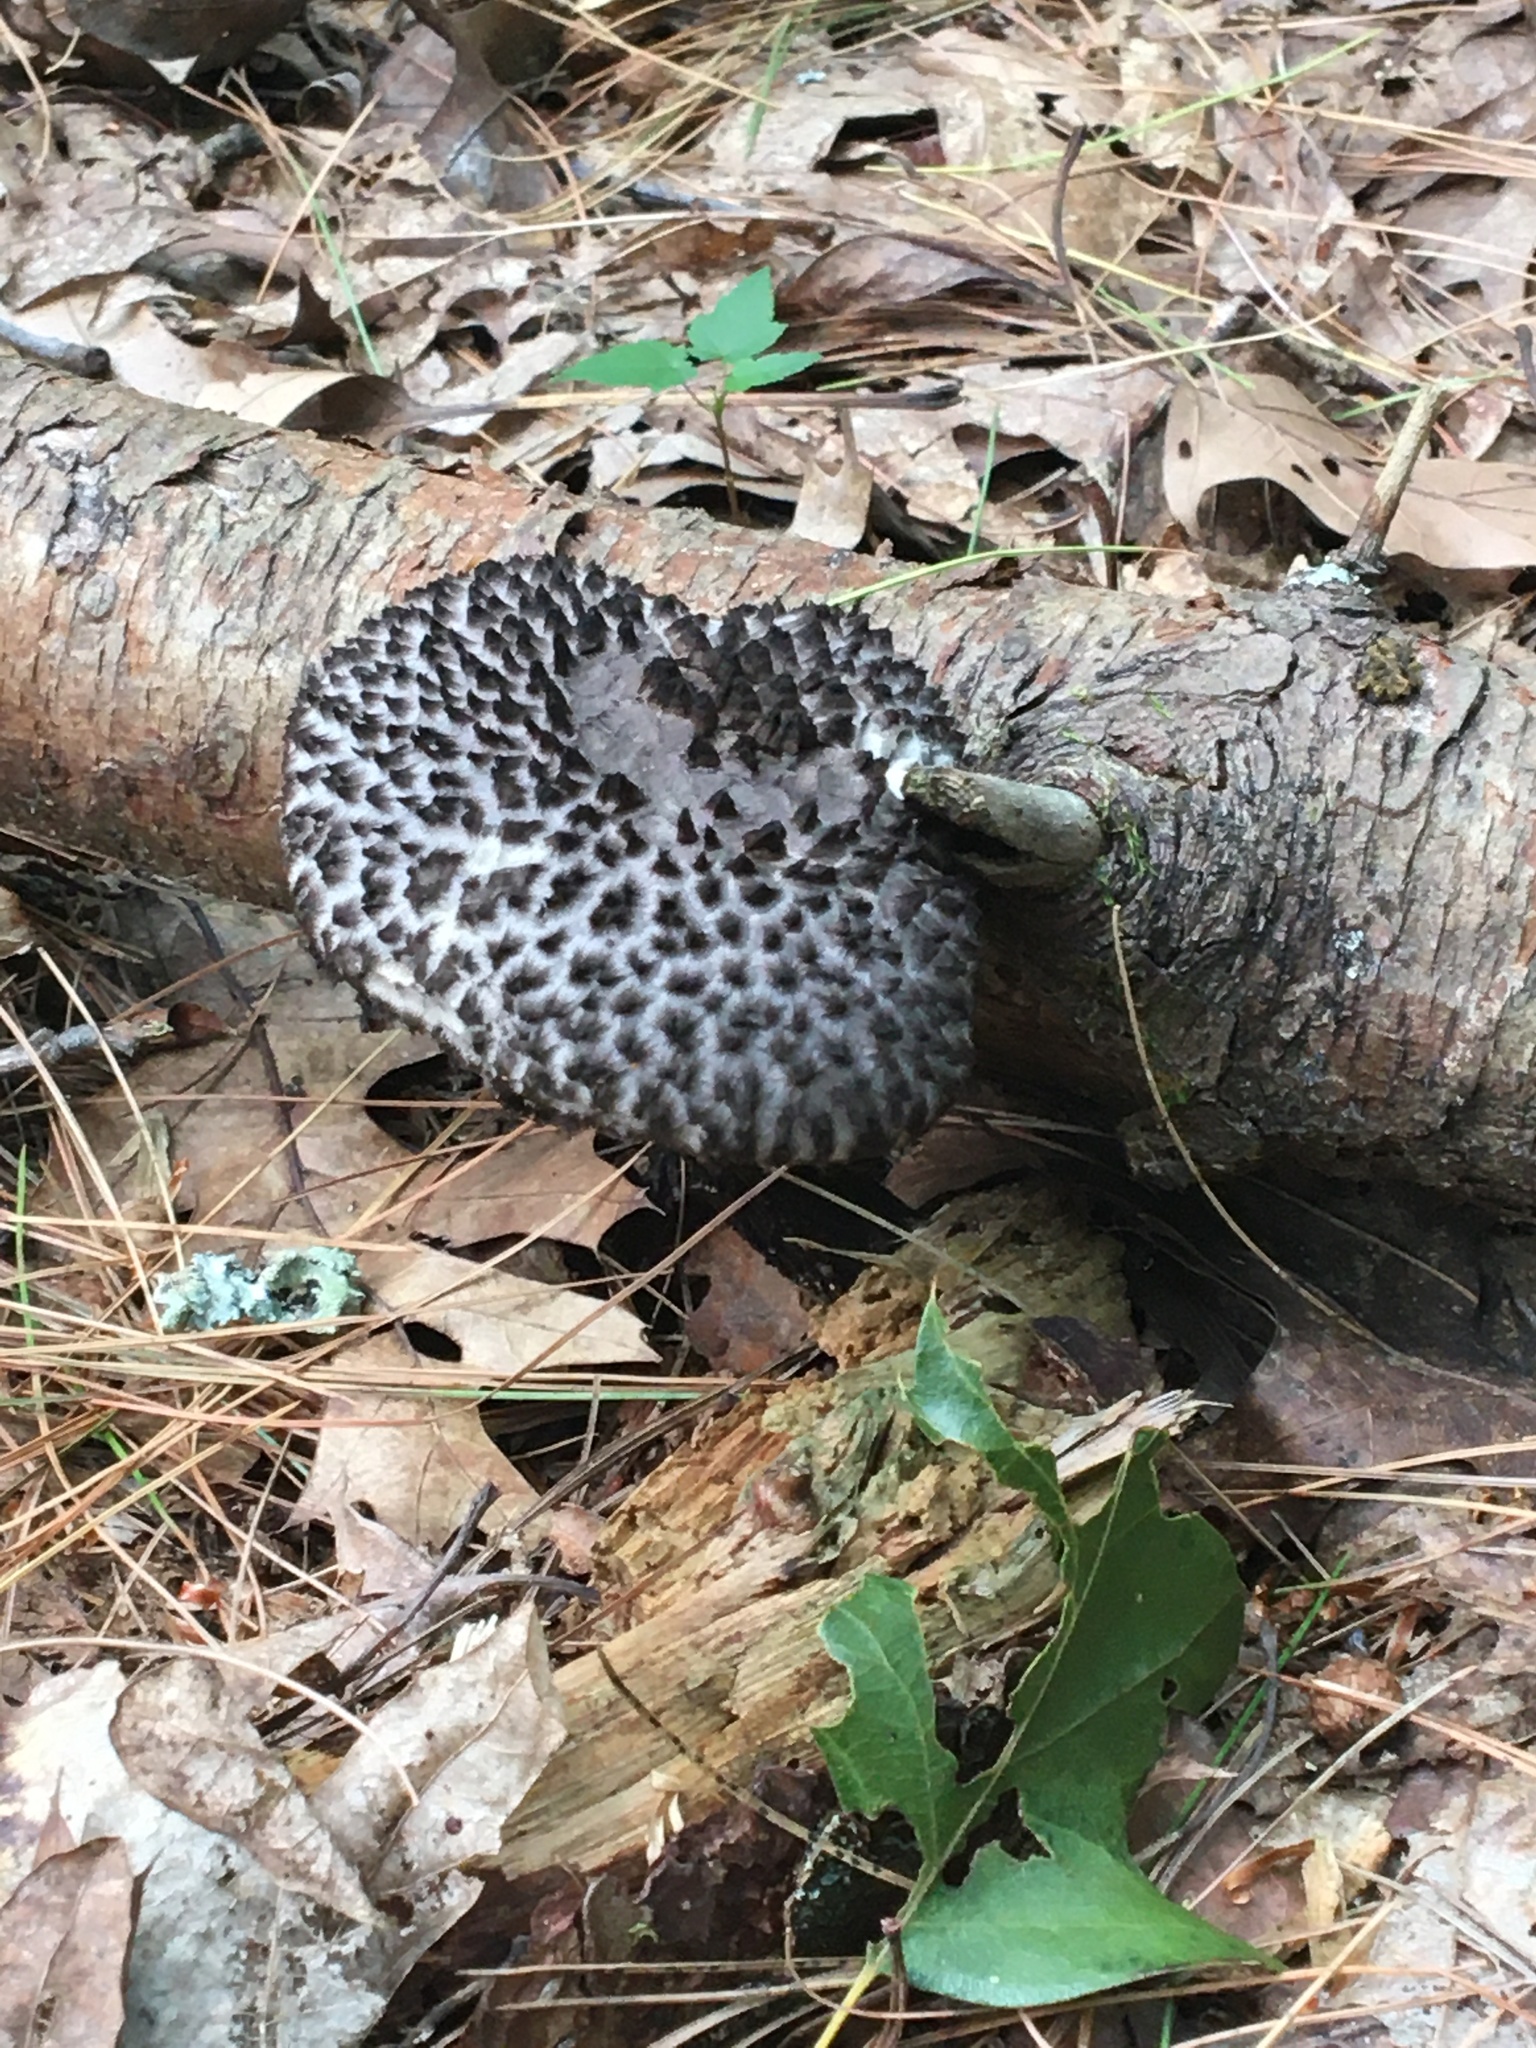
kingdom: Fungi
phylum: Basidiomycota
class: Agaricomycetes
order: Boletales
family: Boletaceae
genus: Strobilomyces
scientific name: Strobilomyces strobilaceus
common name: Old man of the woods
